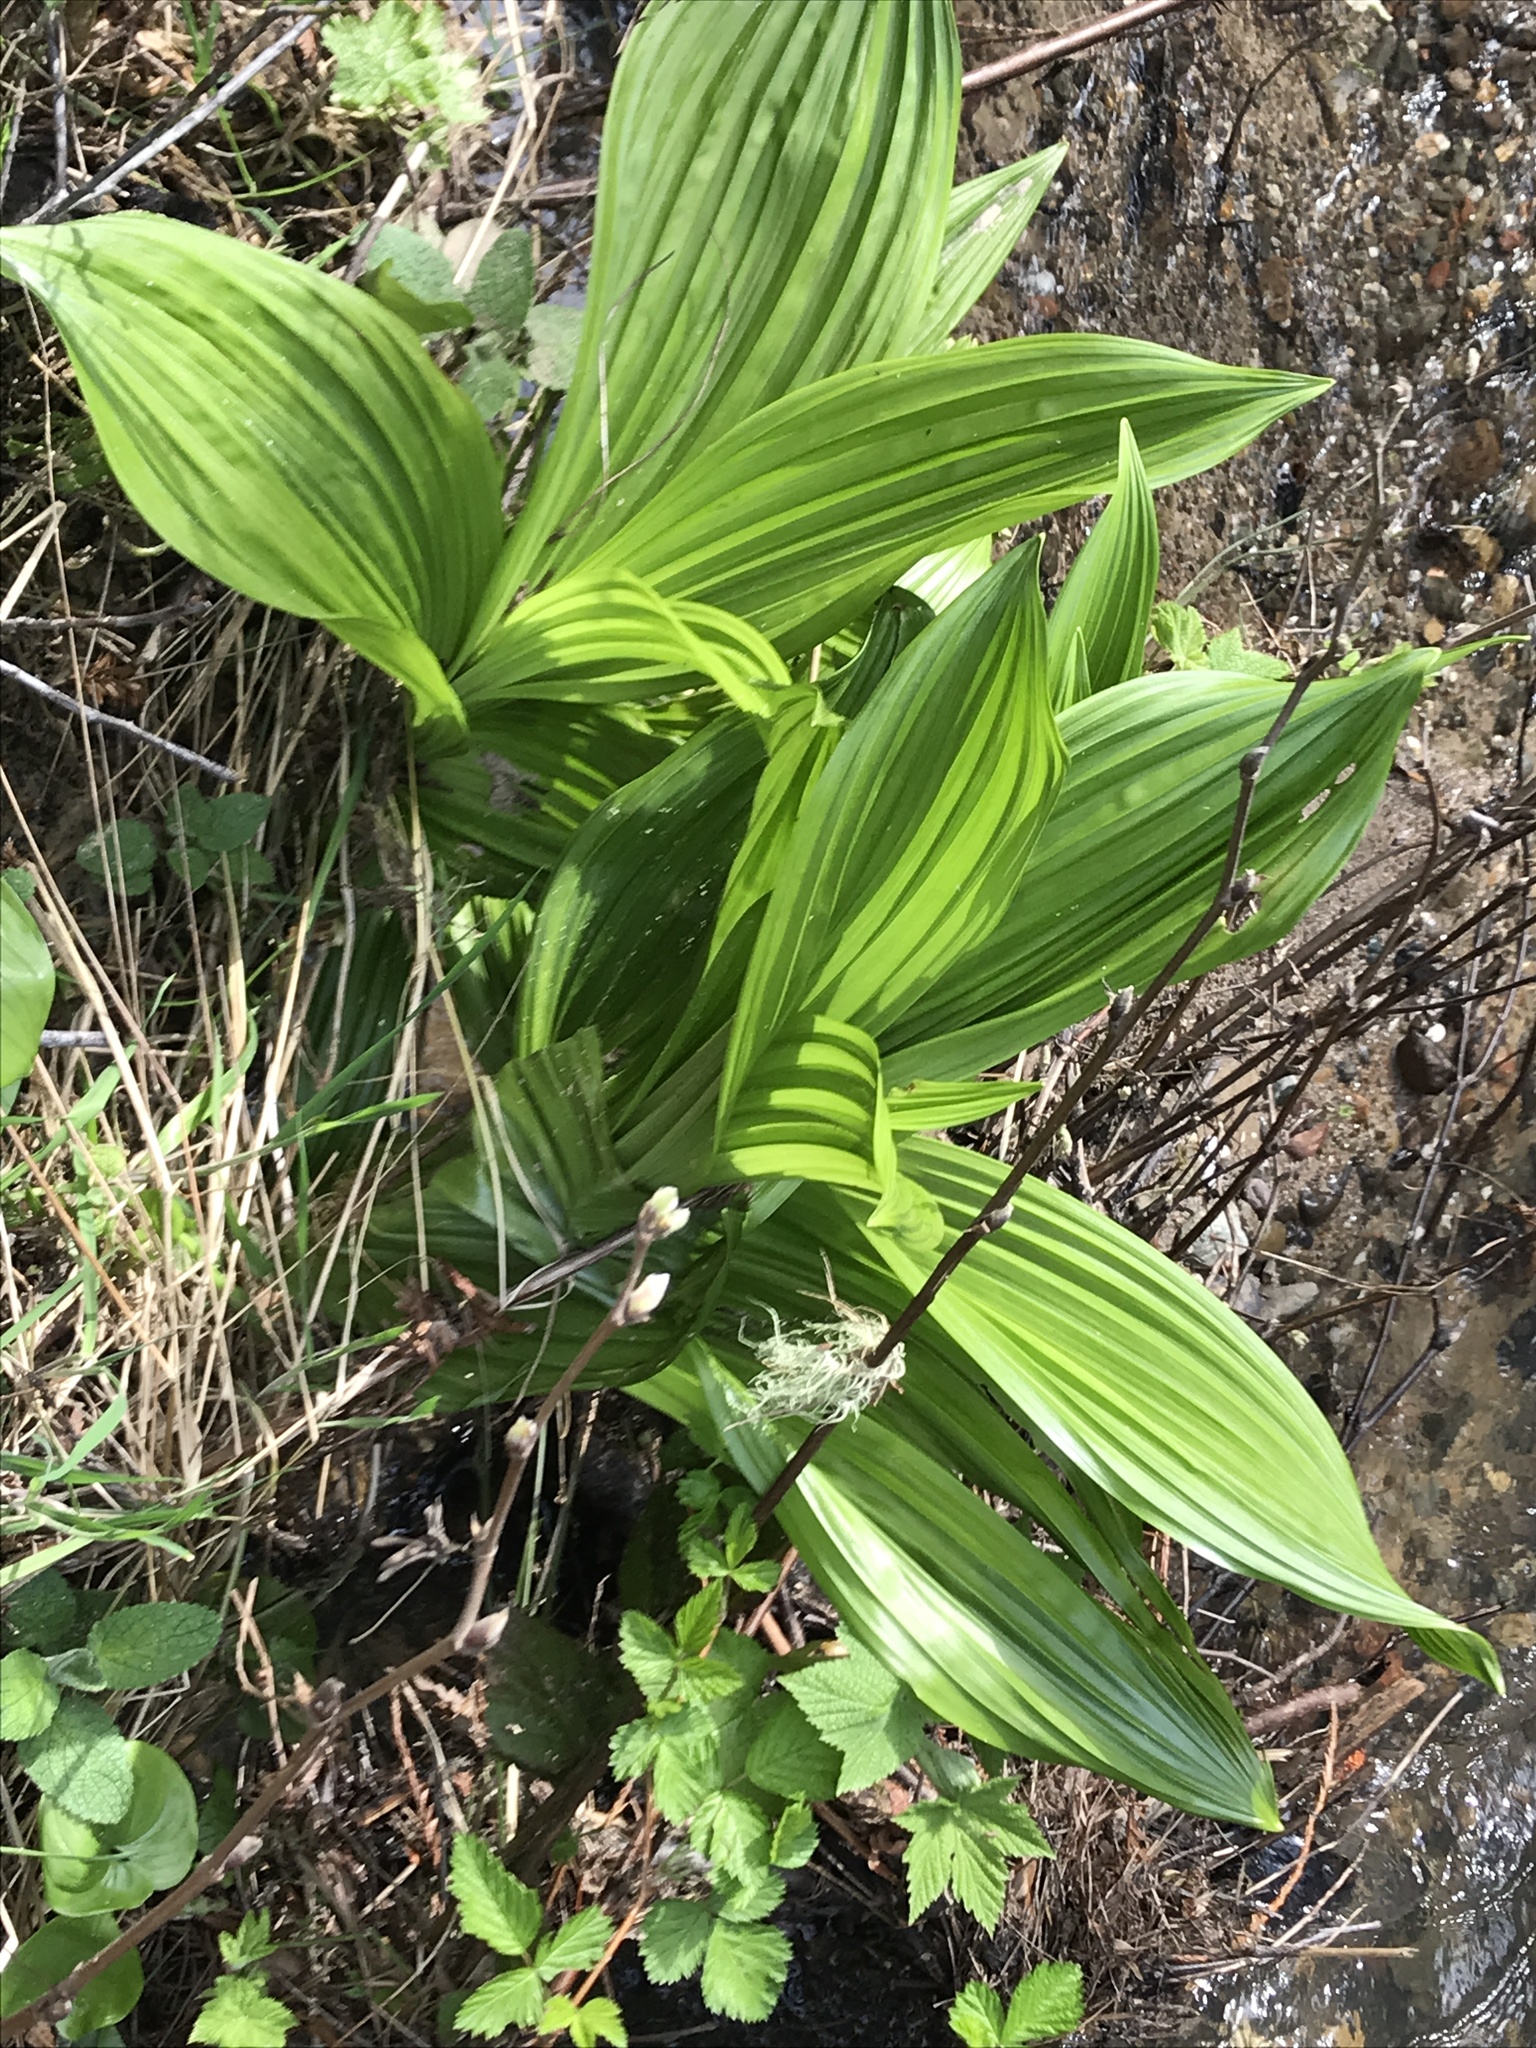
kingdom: Plantae
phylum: Tracheophyta
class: Liliopsida
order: Liliales
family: Melanthiaceae
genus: Veratrum
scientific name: Veratrum fimbriatum
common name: Fringe false hellobore
